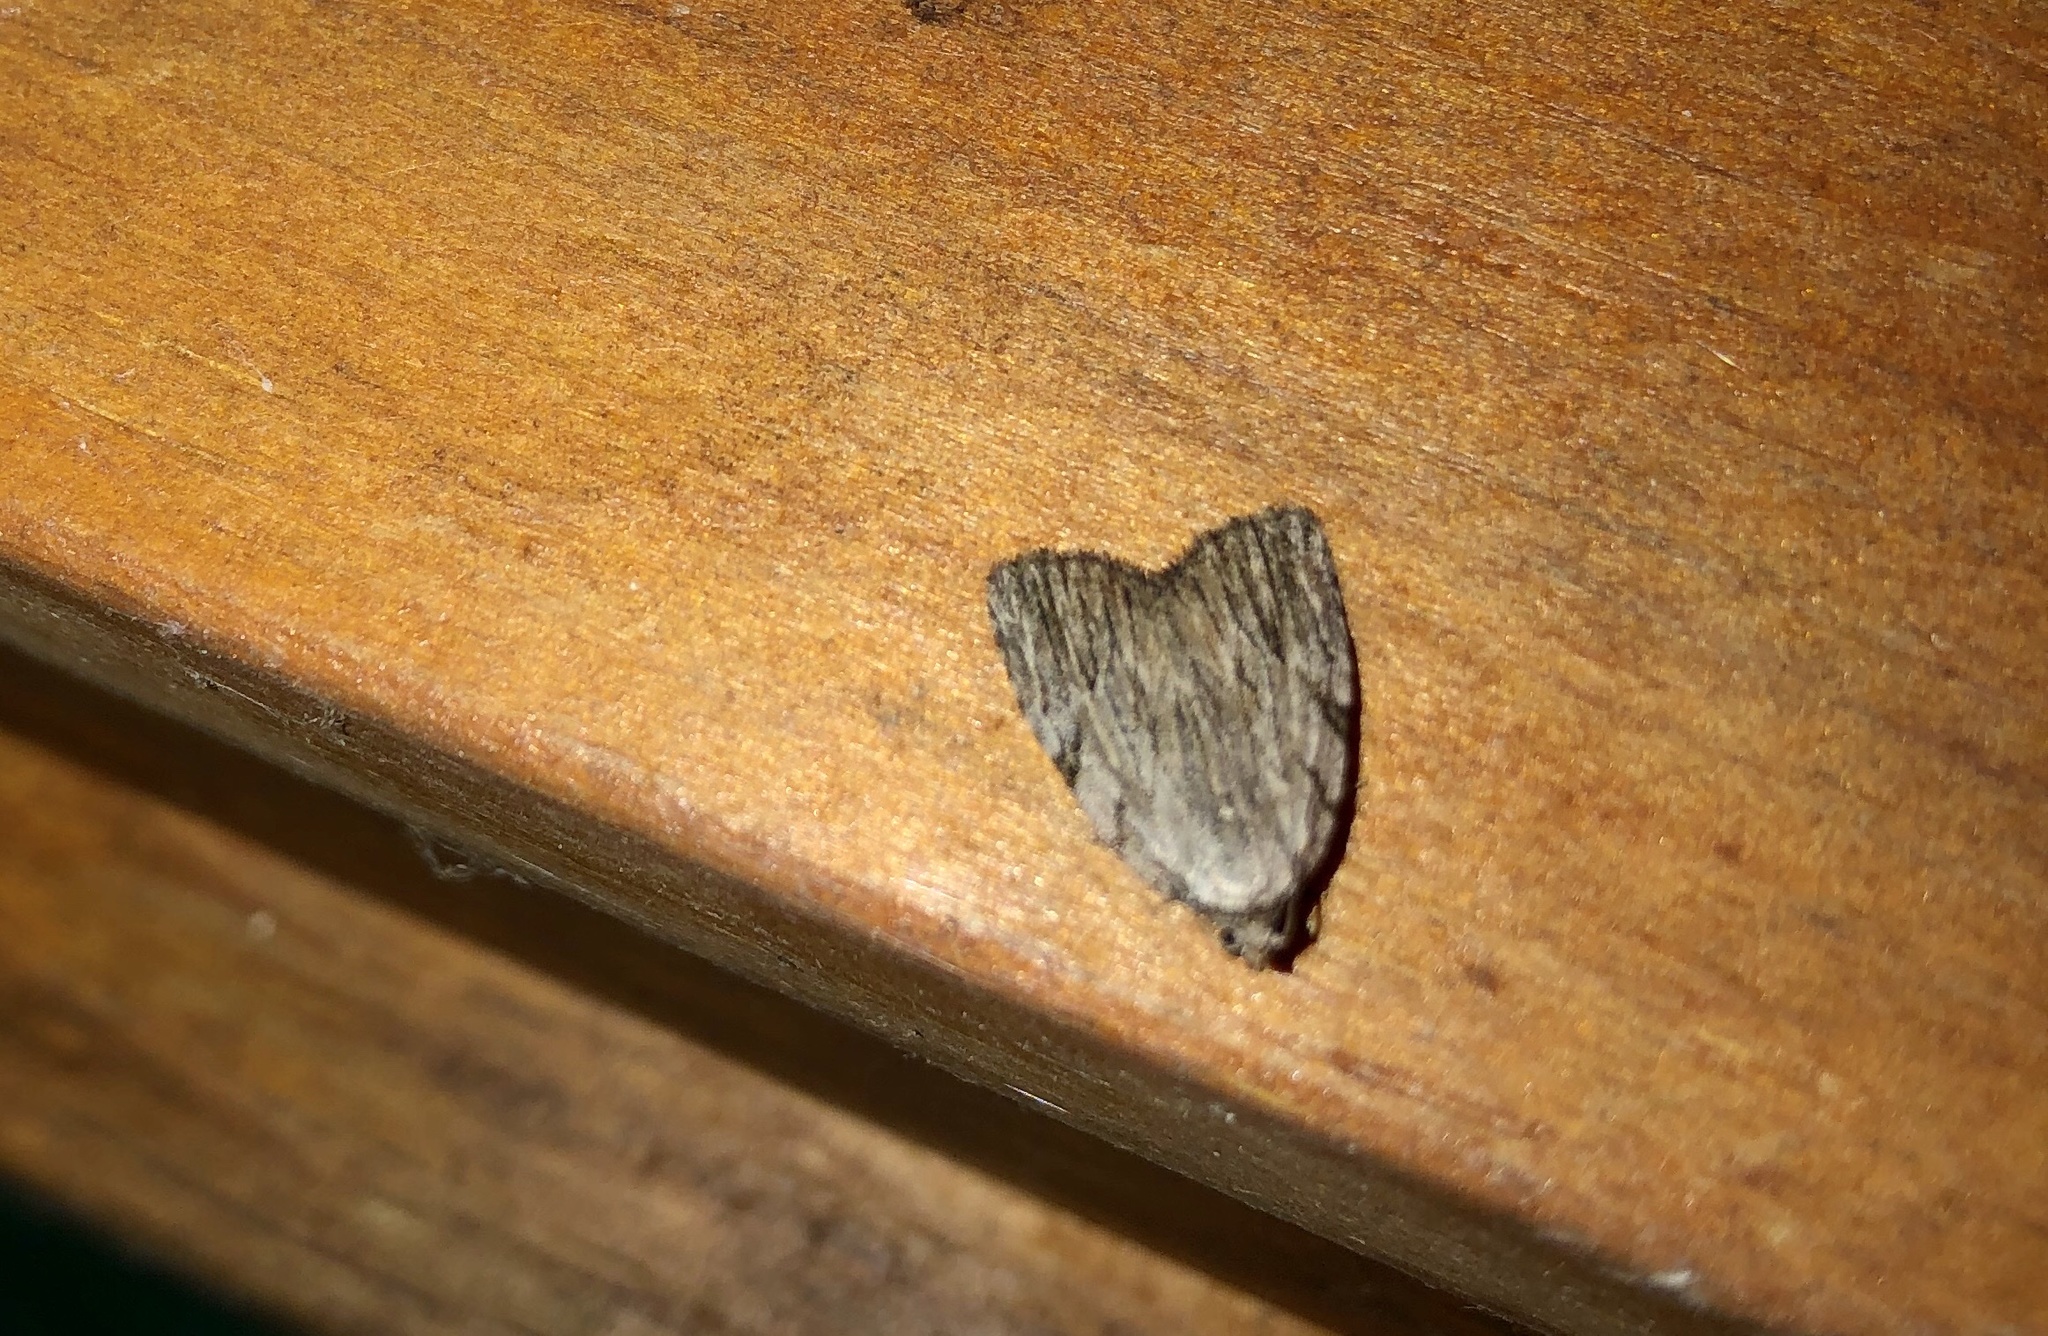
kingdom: Animalia
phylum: Arthropoda
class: Insecta
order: Lepidoptera
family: Noctuidae
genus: Balsa
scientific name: Balsa tristrigella
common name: Three-lined balsa moth
